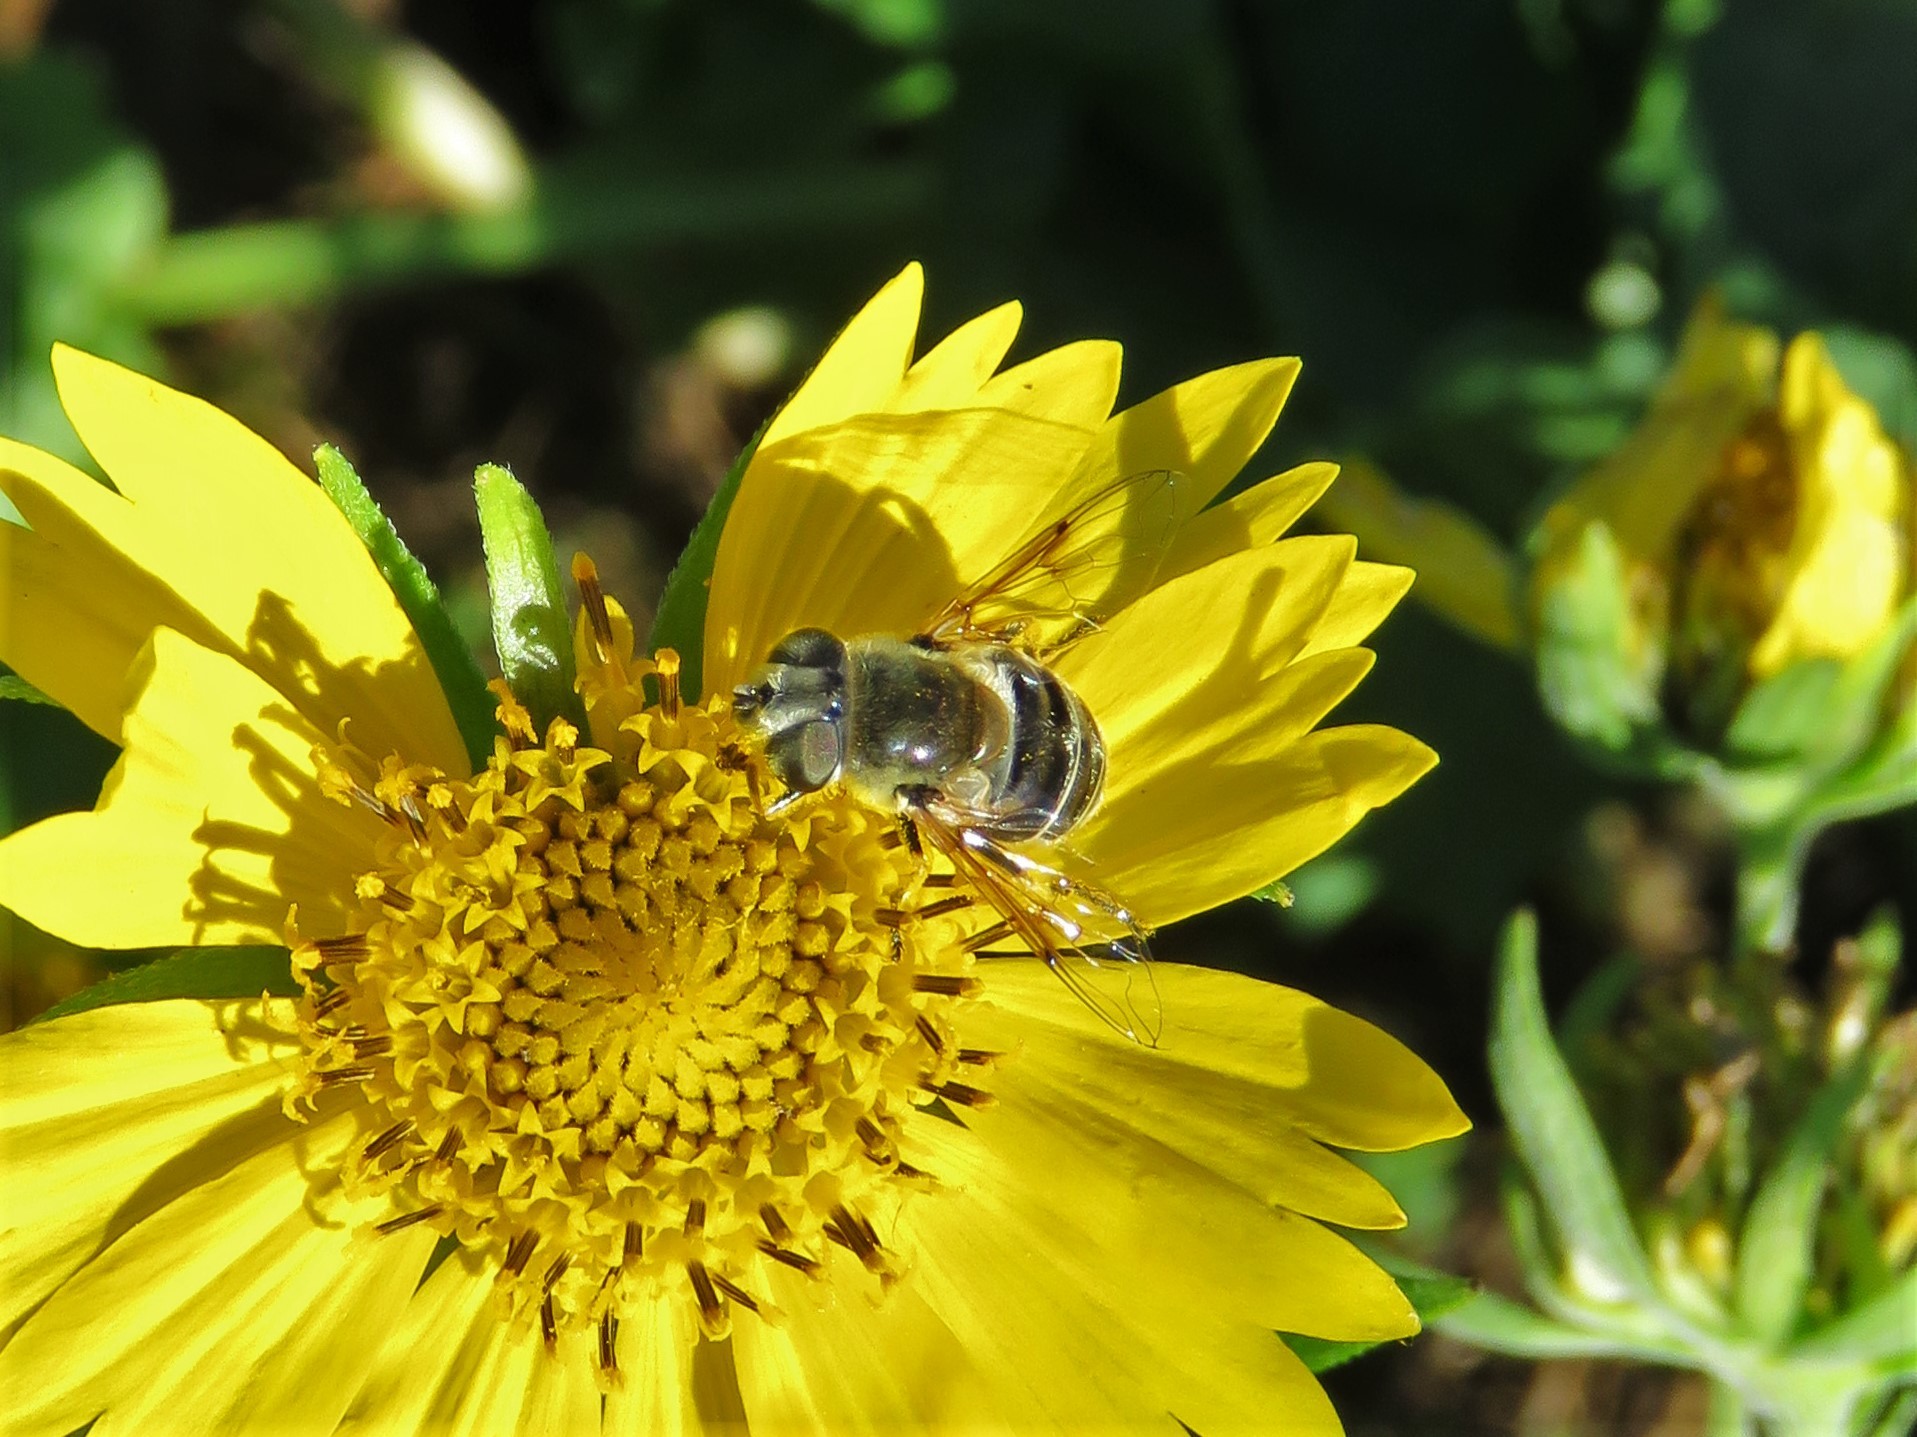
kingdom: Animalia
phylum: Arthropoda
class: Insecta
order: Diptera
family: Syrphidae
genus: Eristalis
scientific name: Eristalis stipator
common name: Yellow-shouldered drone fly
